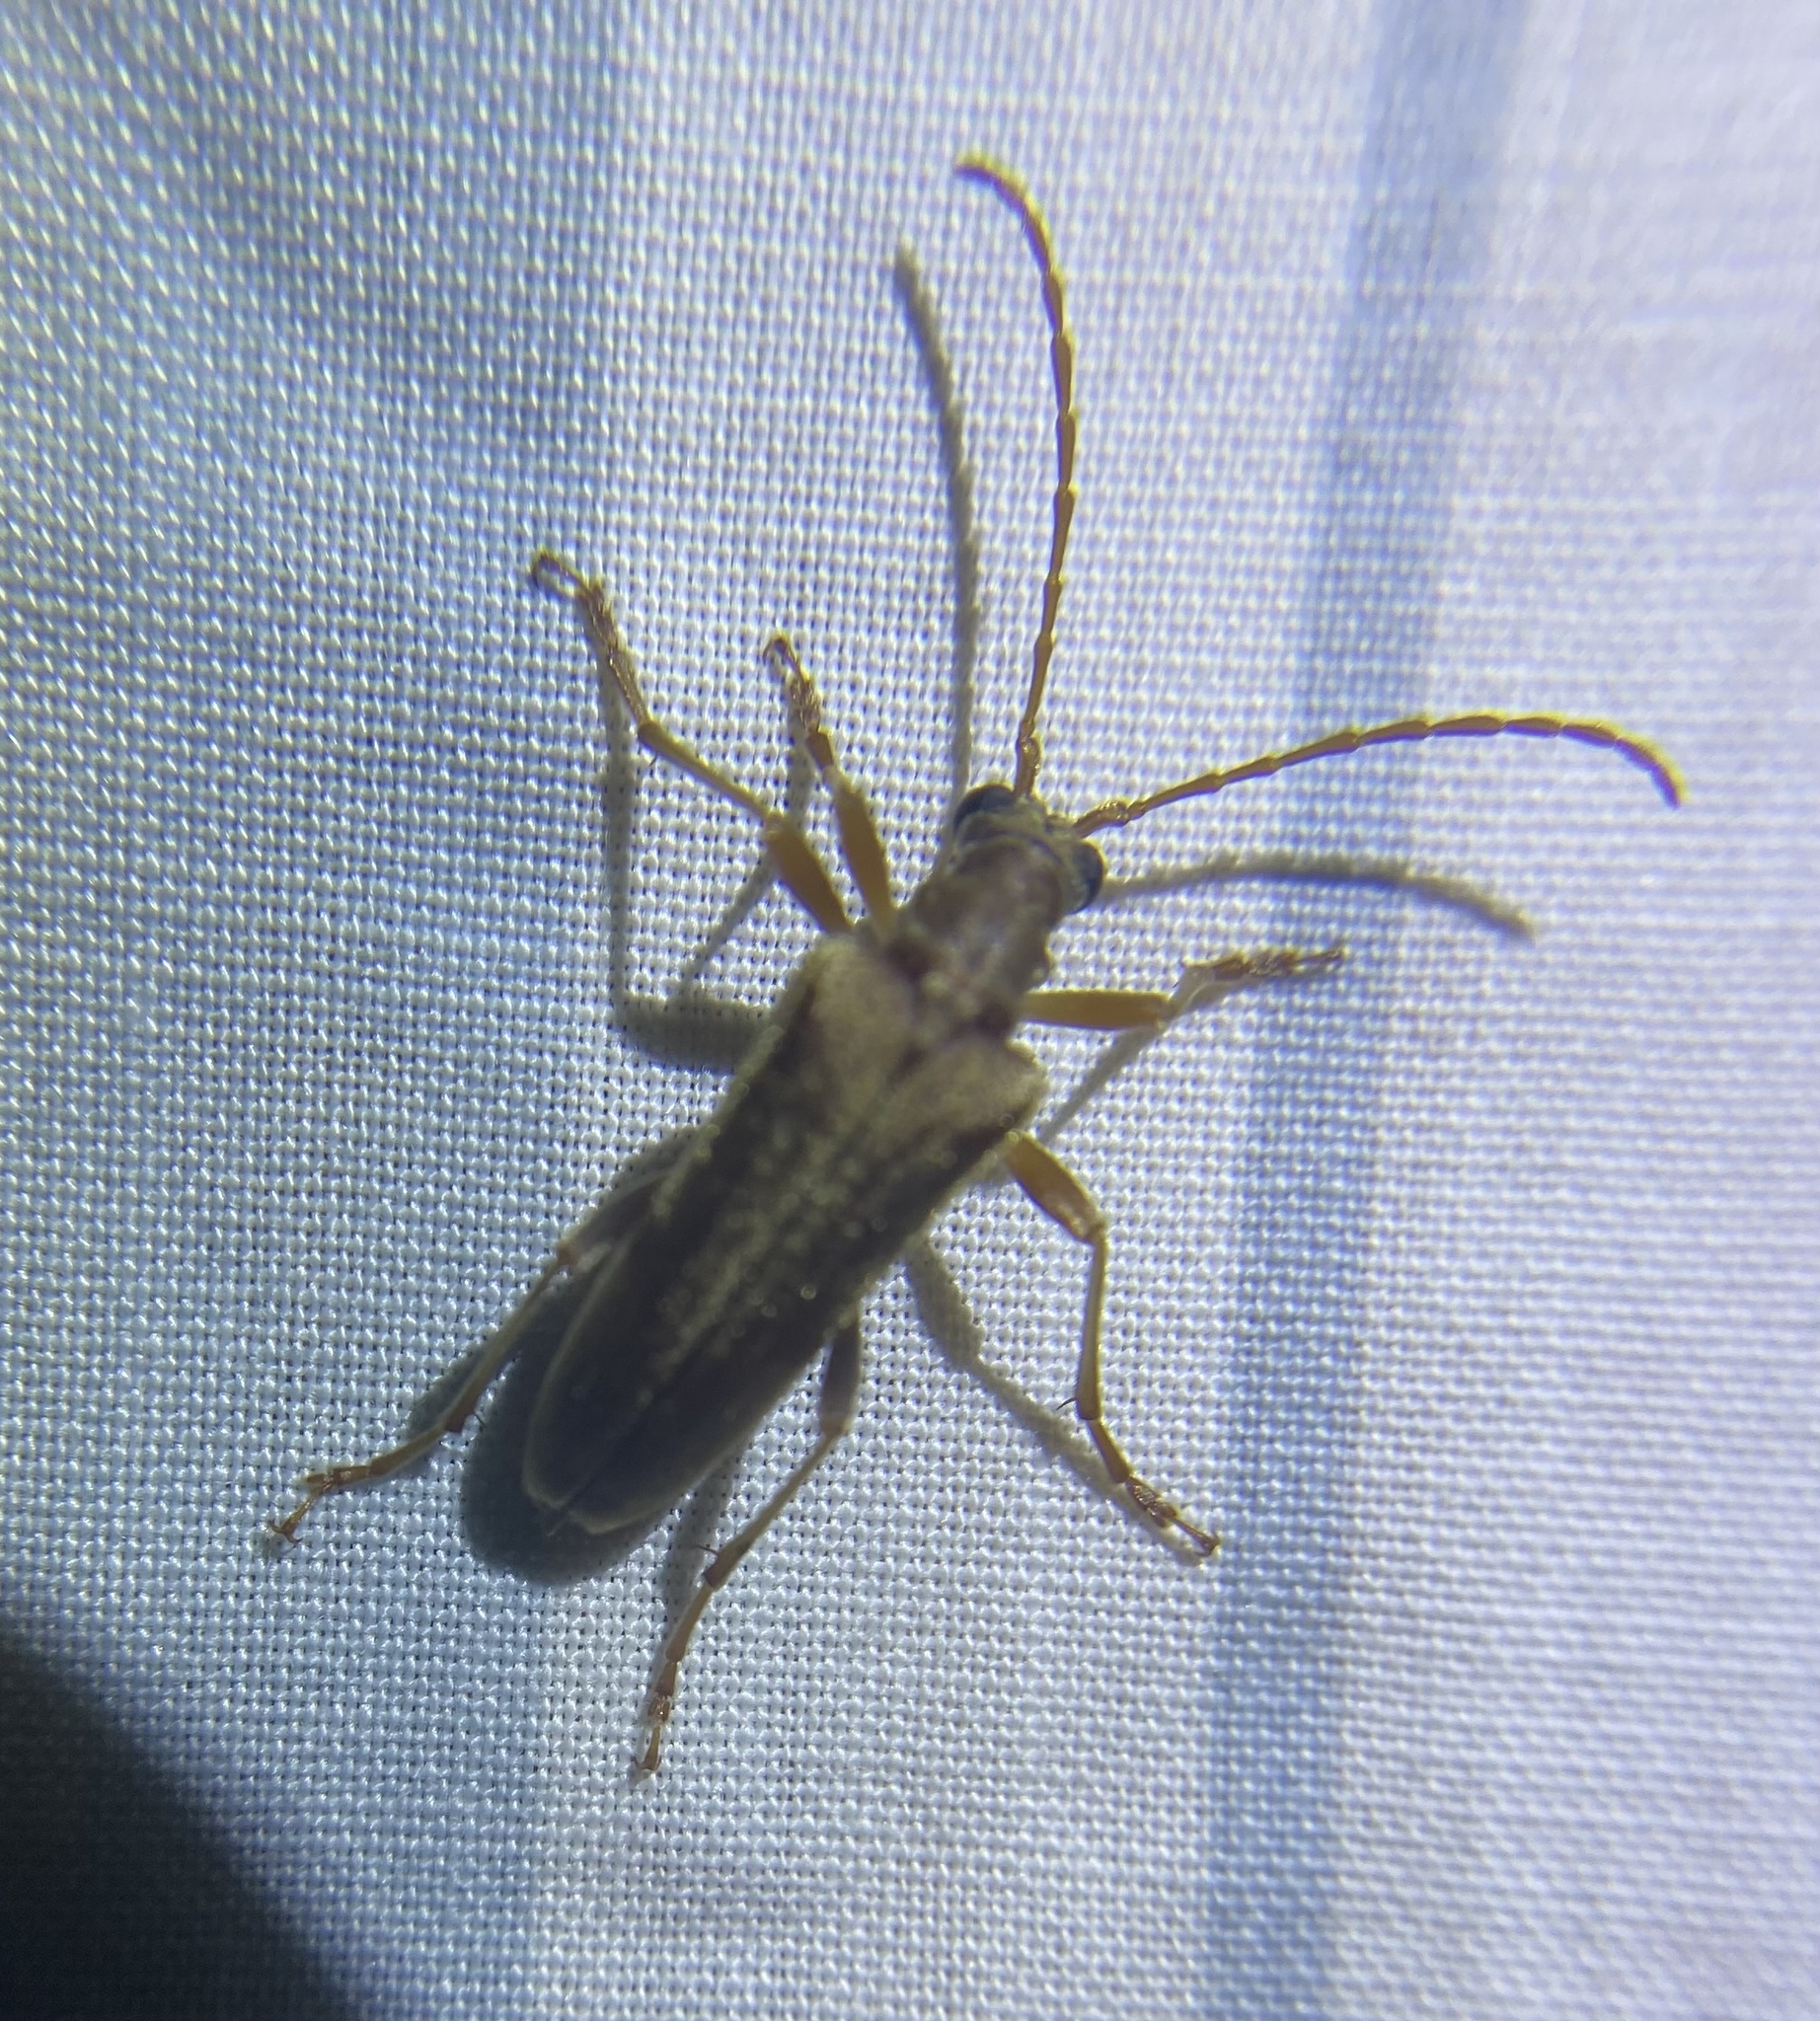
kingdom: Animalia
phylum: Arthropoda
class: Insecta
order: Coleoptera
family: Cerambycidae
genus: Stenocorus
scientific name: Stenocorus cinnamopterus
